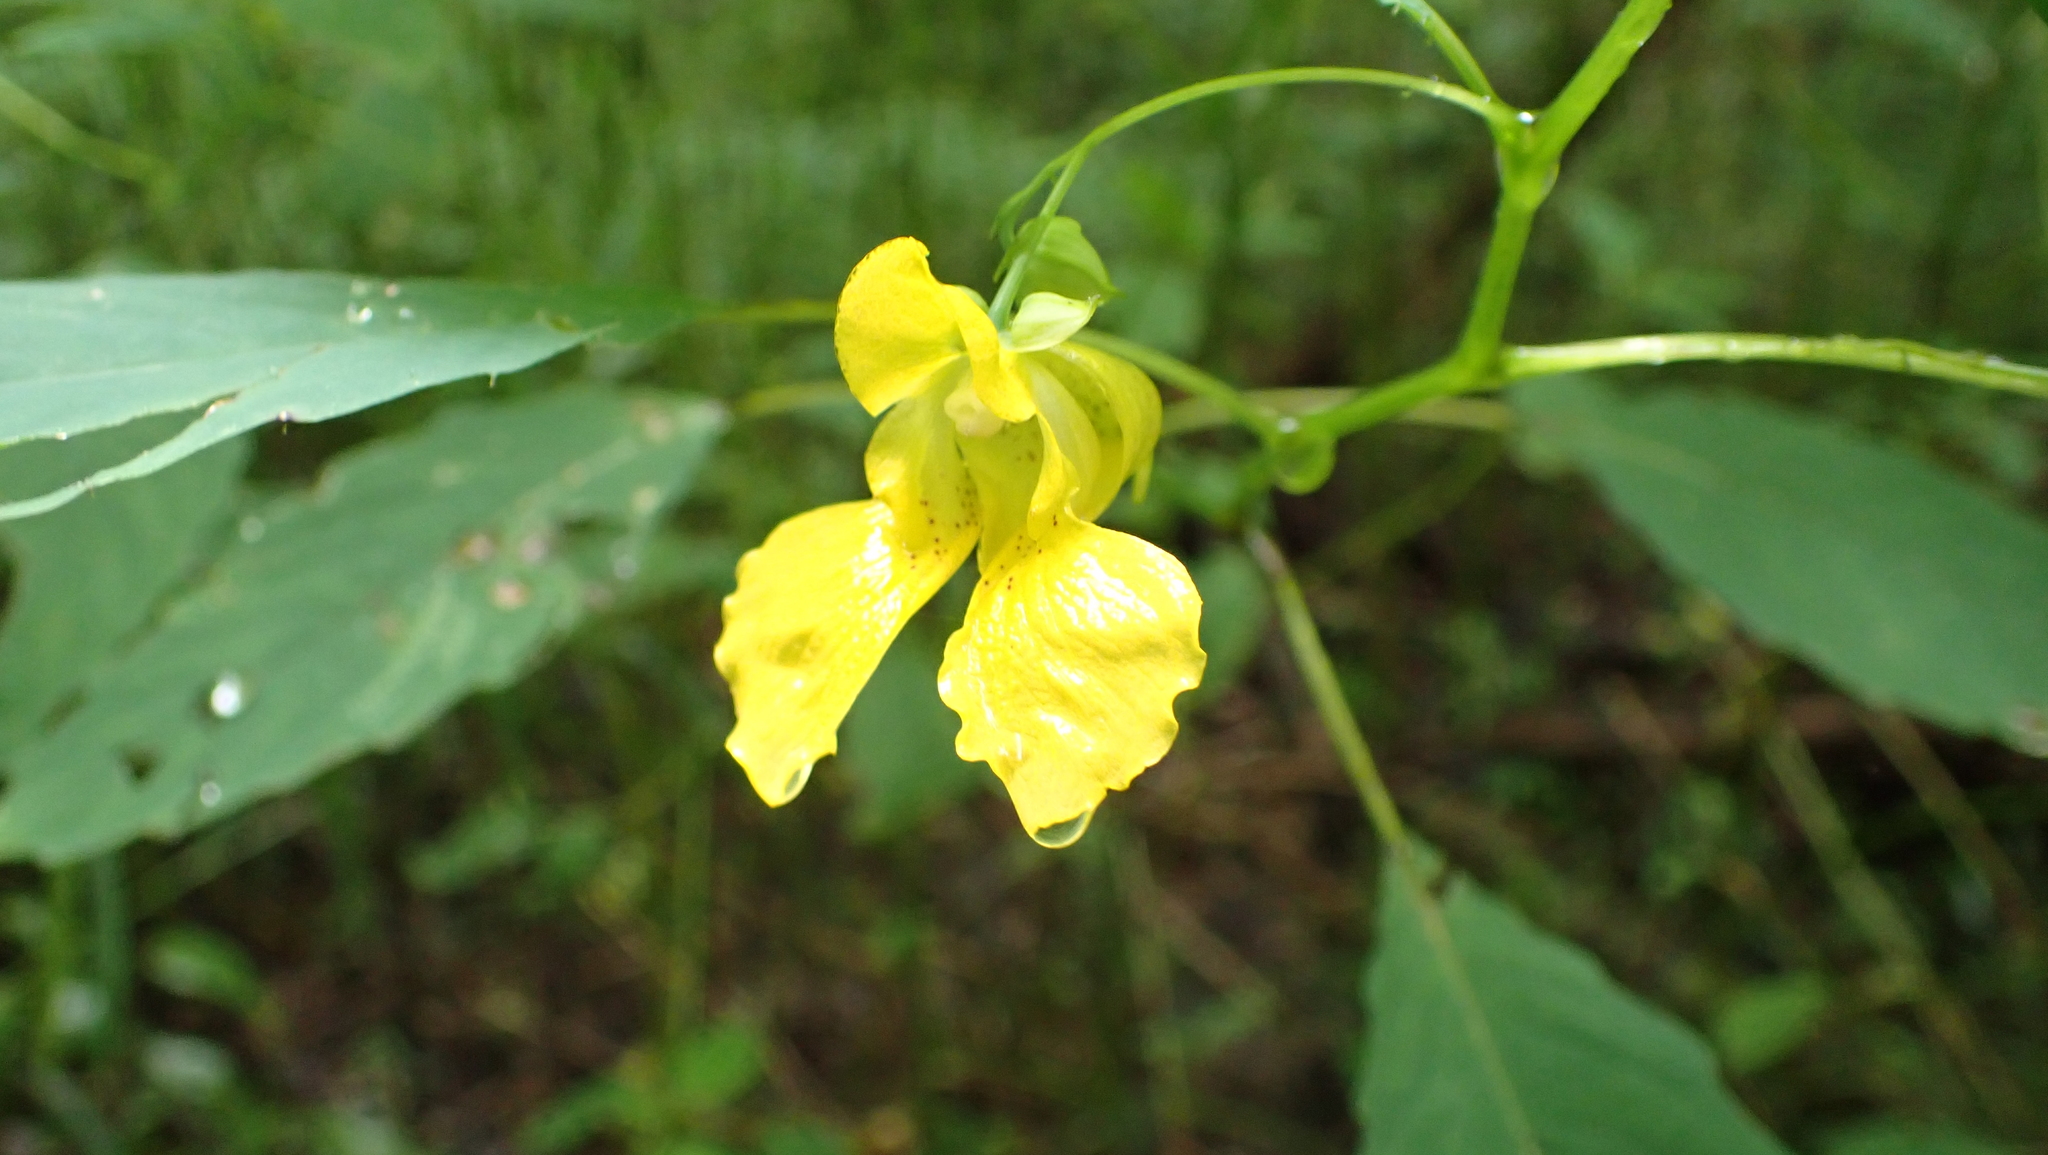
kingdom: Plantae
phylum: Tracheophyta
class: Magnoliopsida
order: Ericales
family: Balsaminaceae
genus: Impatiens
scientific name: Impatiens pallida
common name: Pale snapweed
